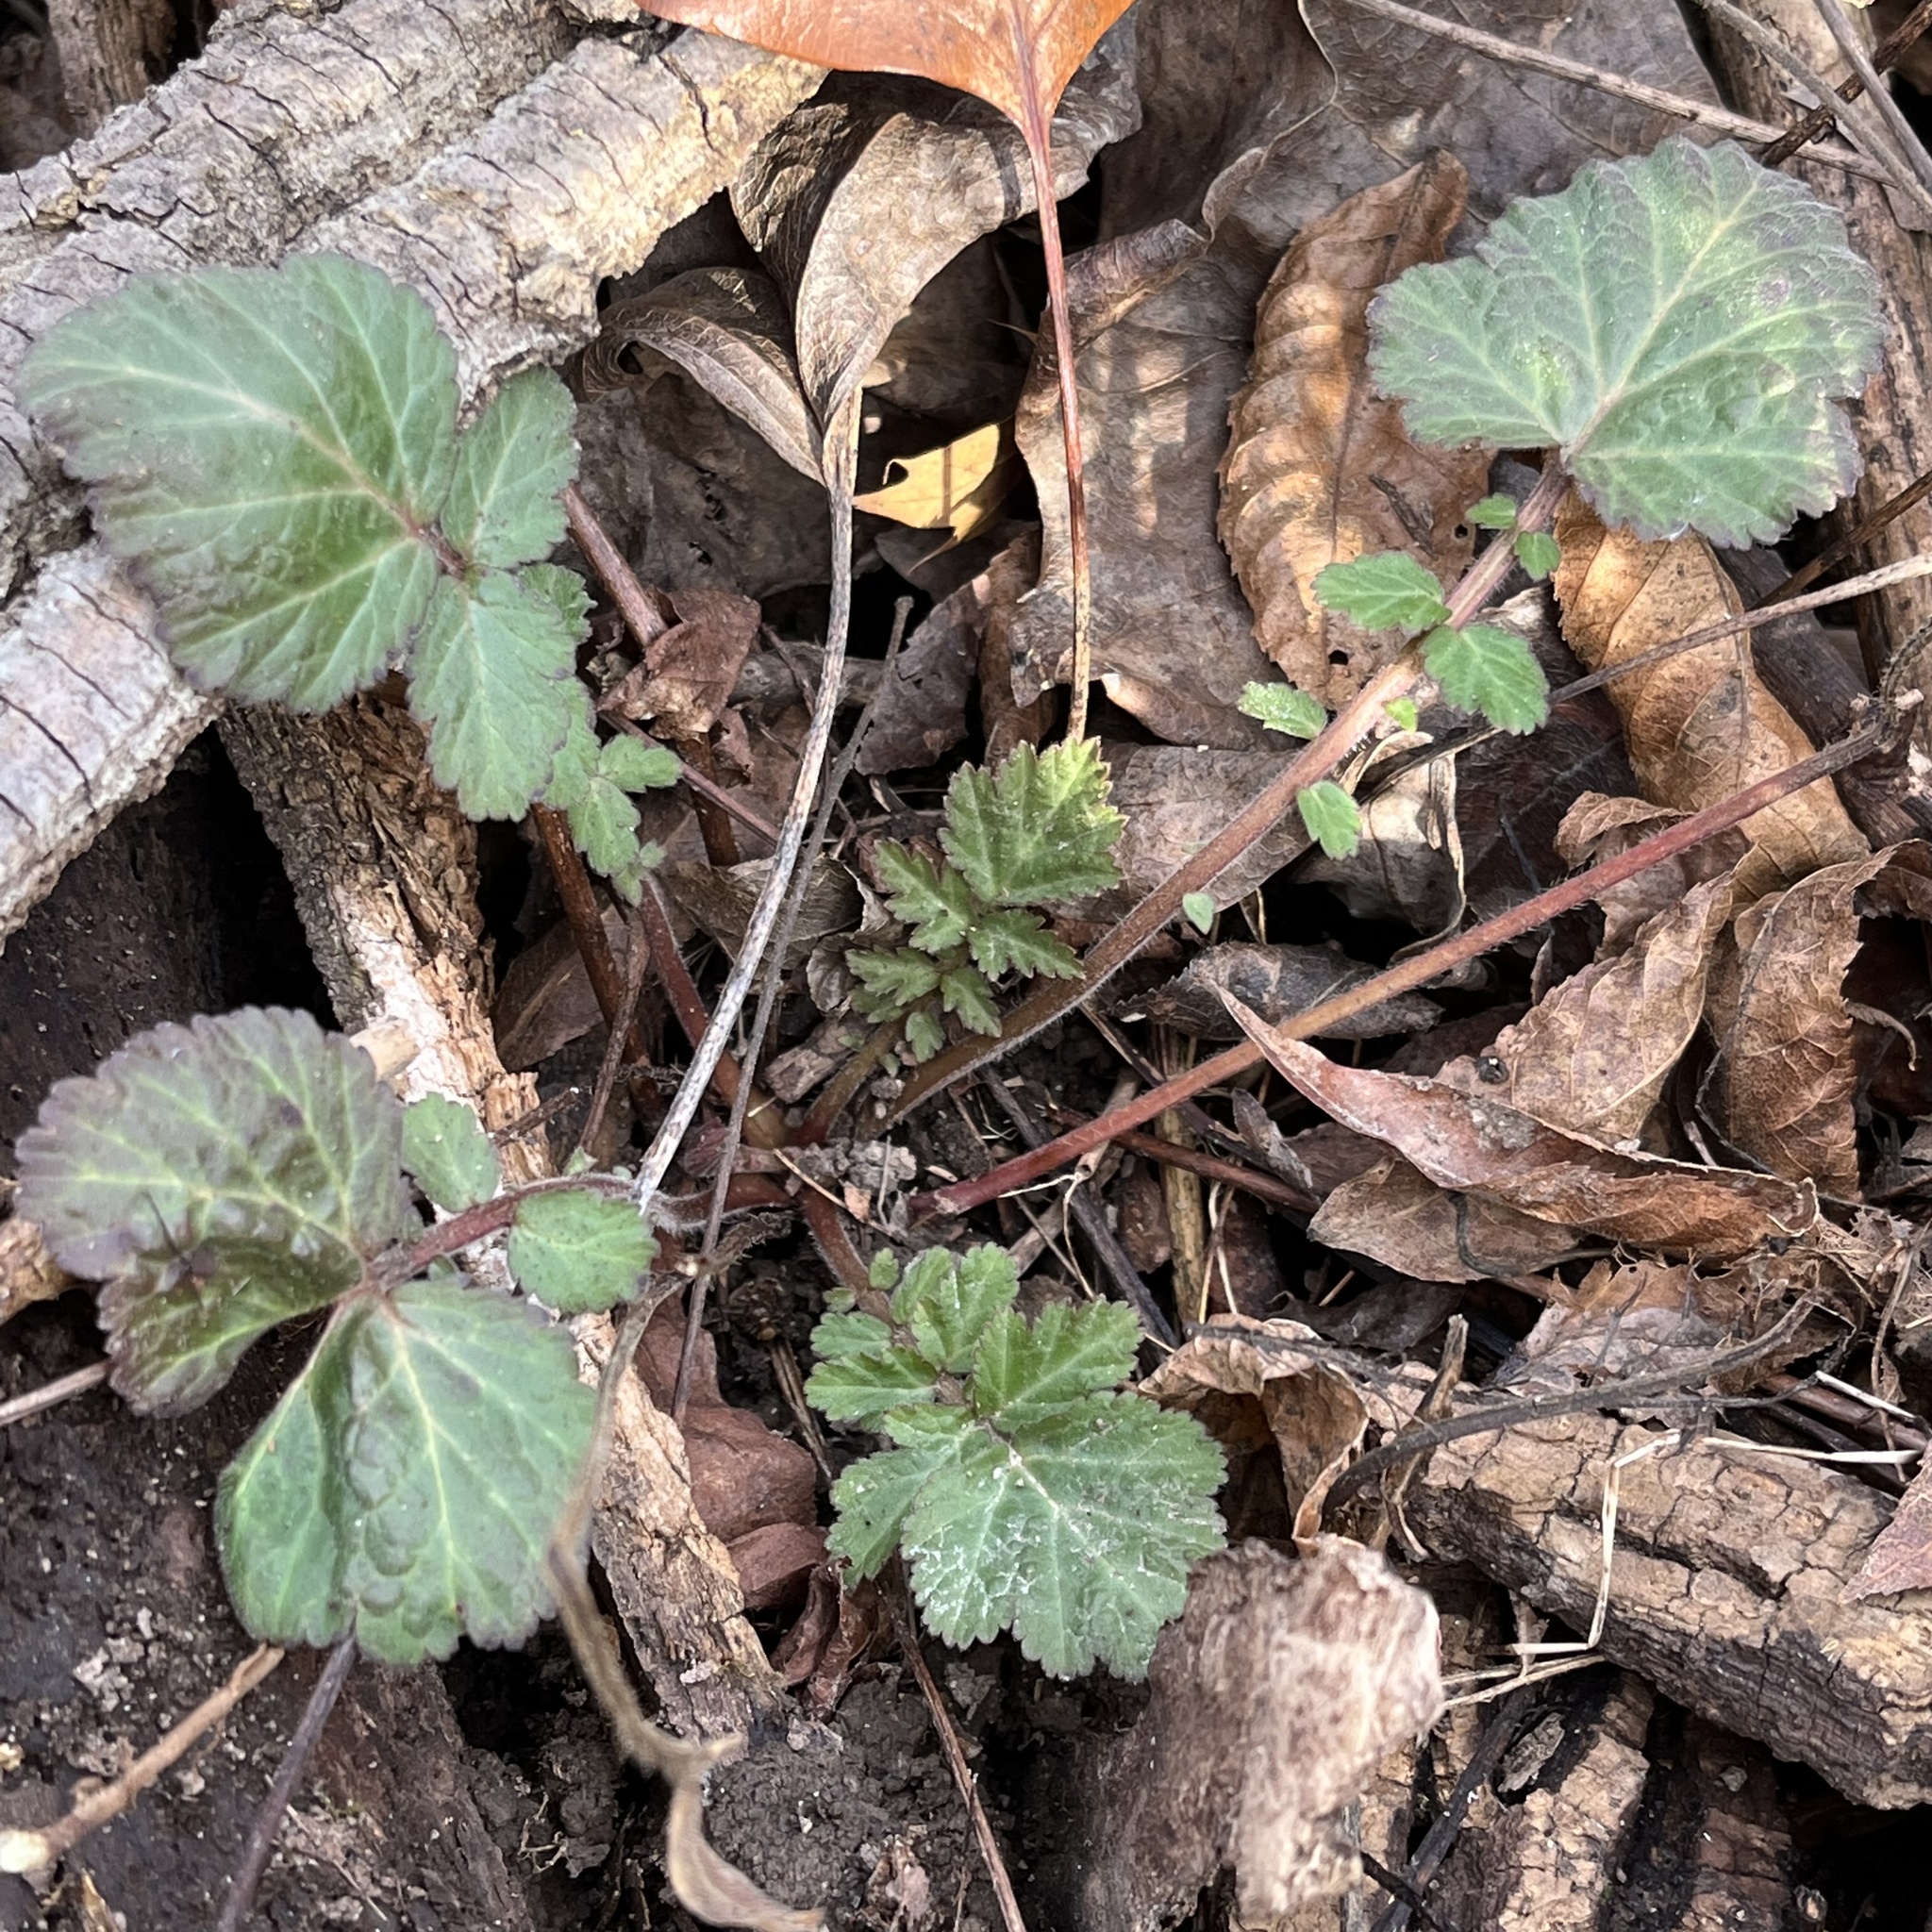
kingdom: Plantae
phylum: Tracheophyta
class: Magnoliopsida
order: Rosales
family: Rosaceae
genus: Geum
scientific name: Geum canadense
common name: White avens
